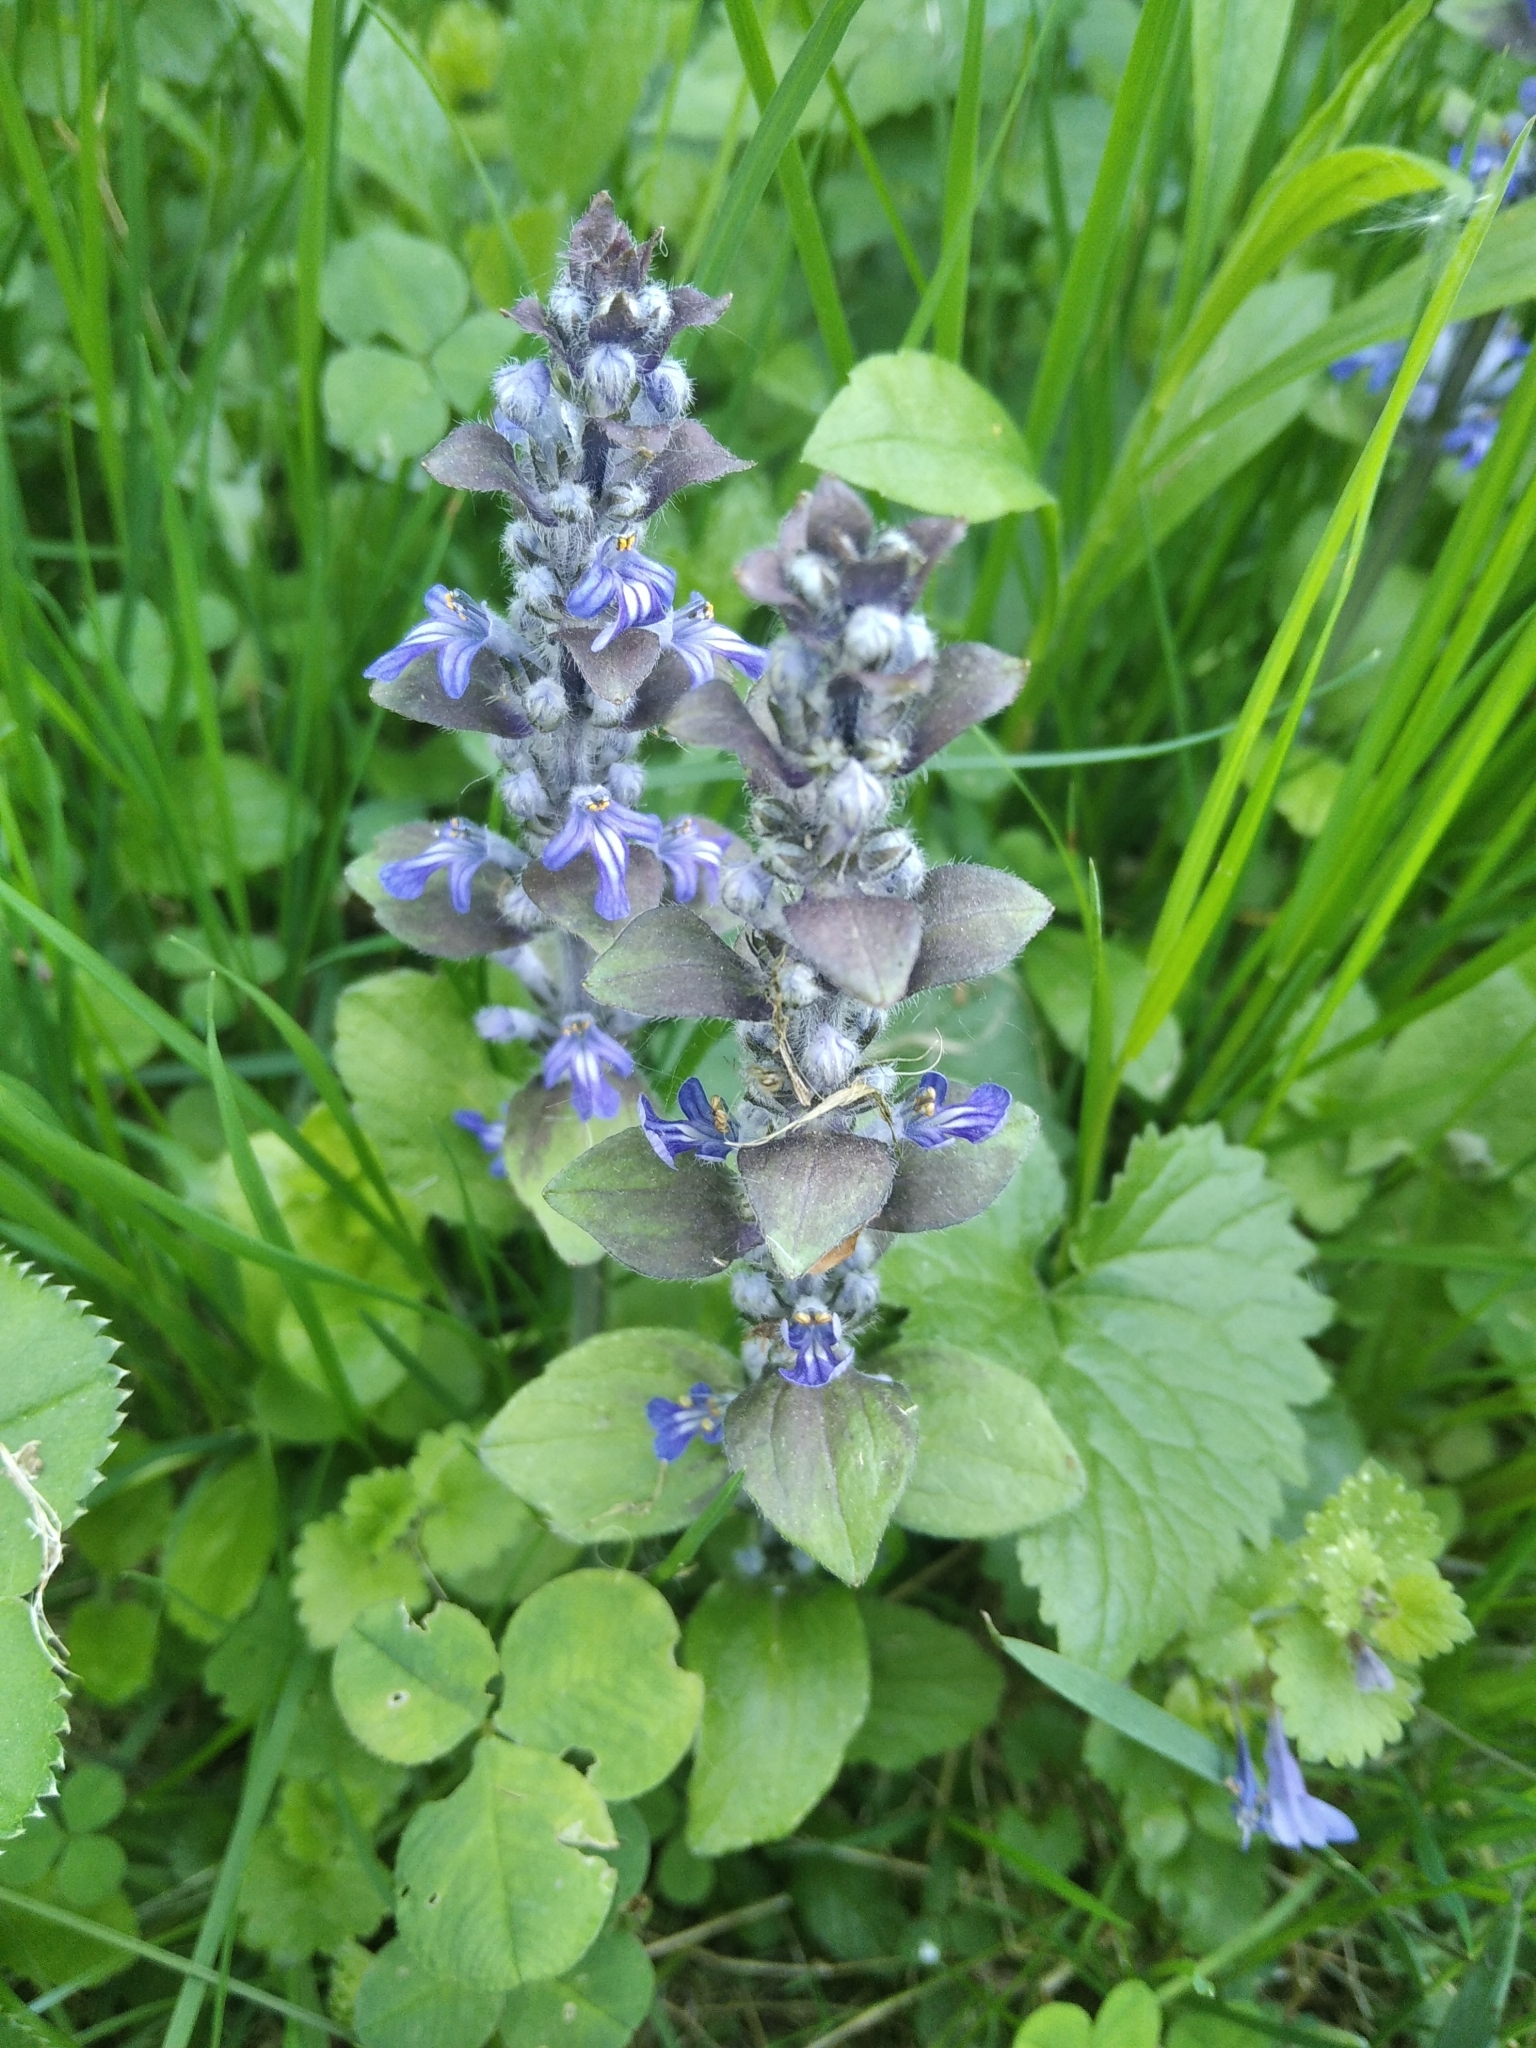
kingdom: Plantae
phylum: Tracheophyta
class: Magnoliopsida
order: Lamiales
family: Lamiaceae
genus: Ajuga
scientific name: Ajuga reptans
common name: Bugle
